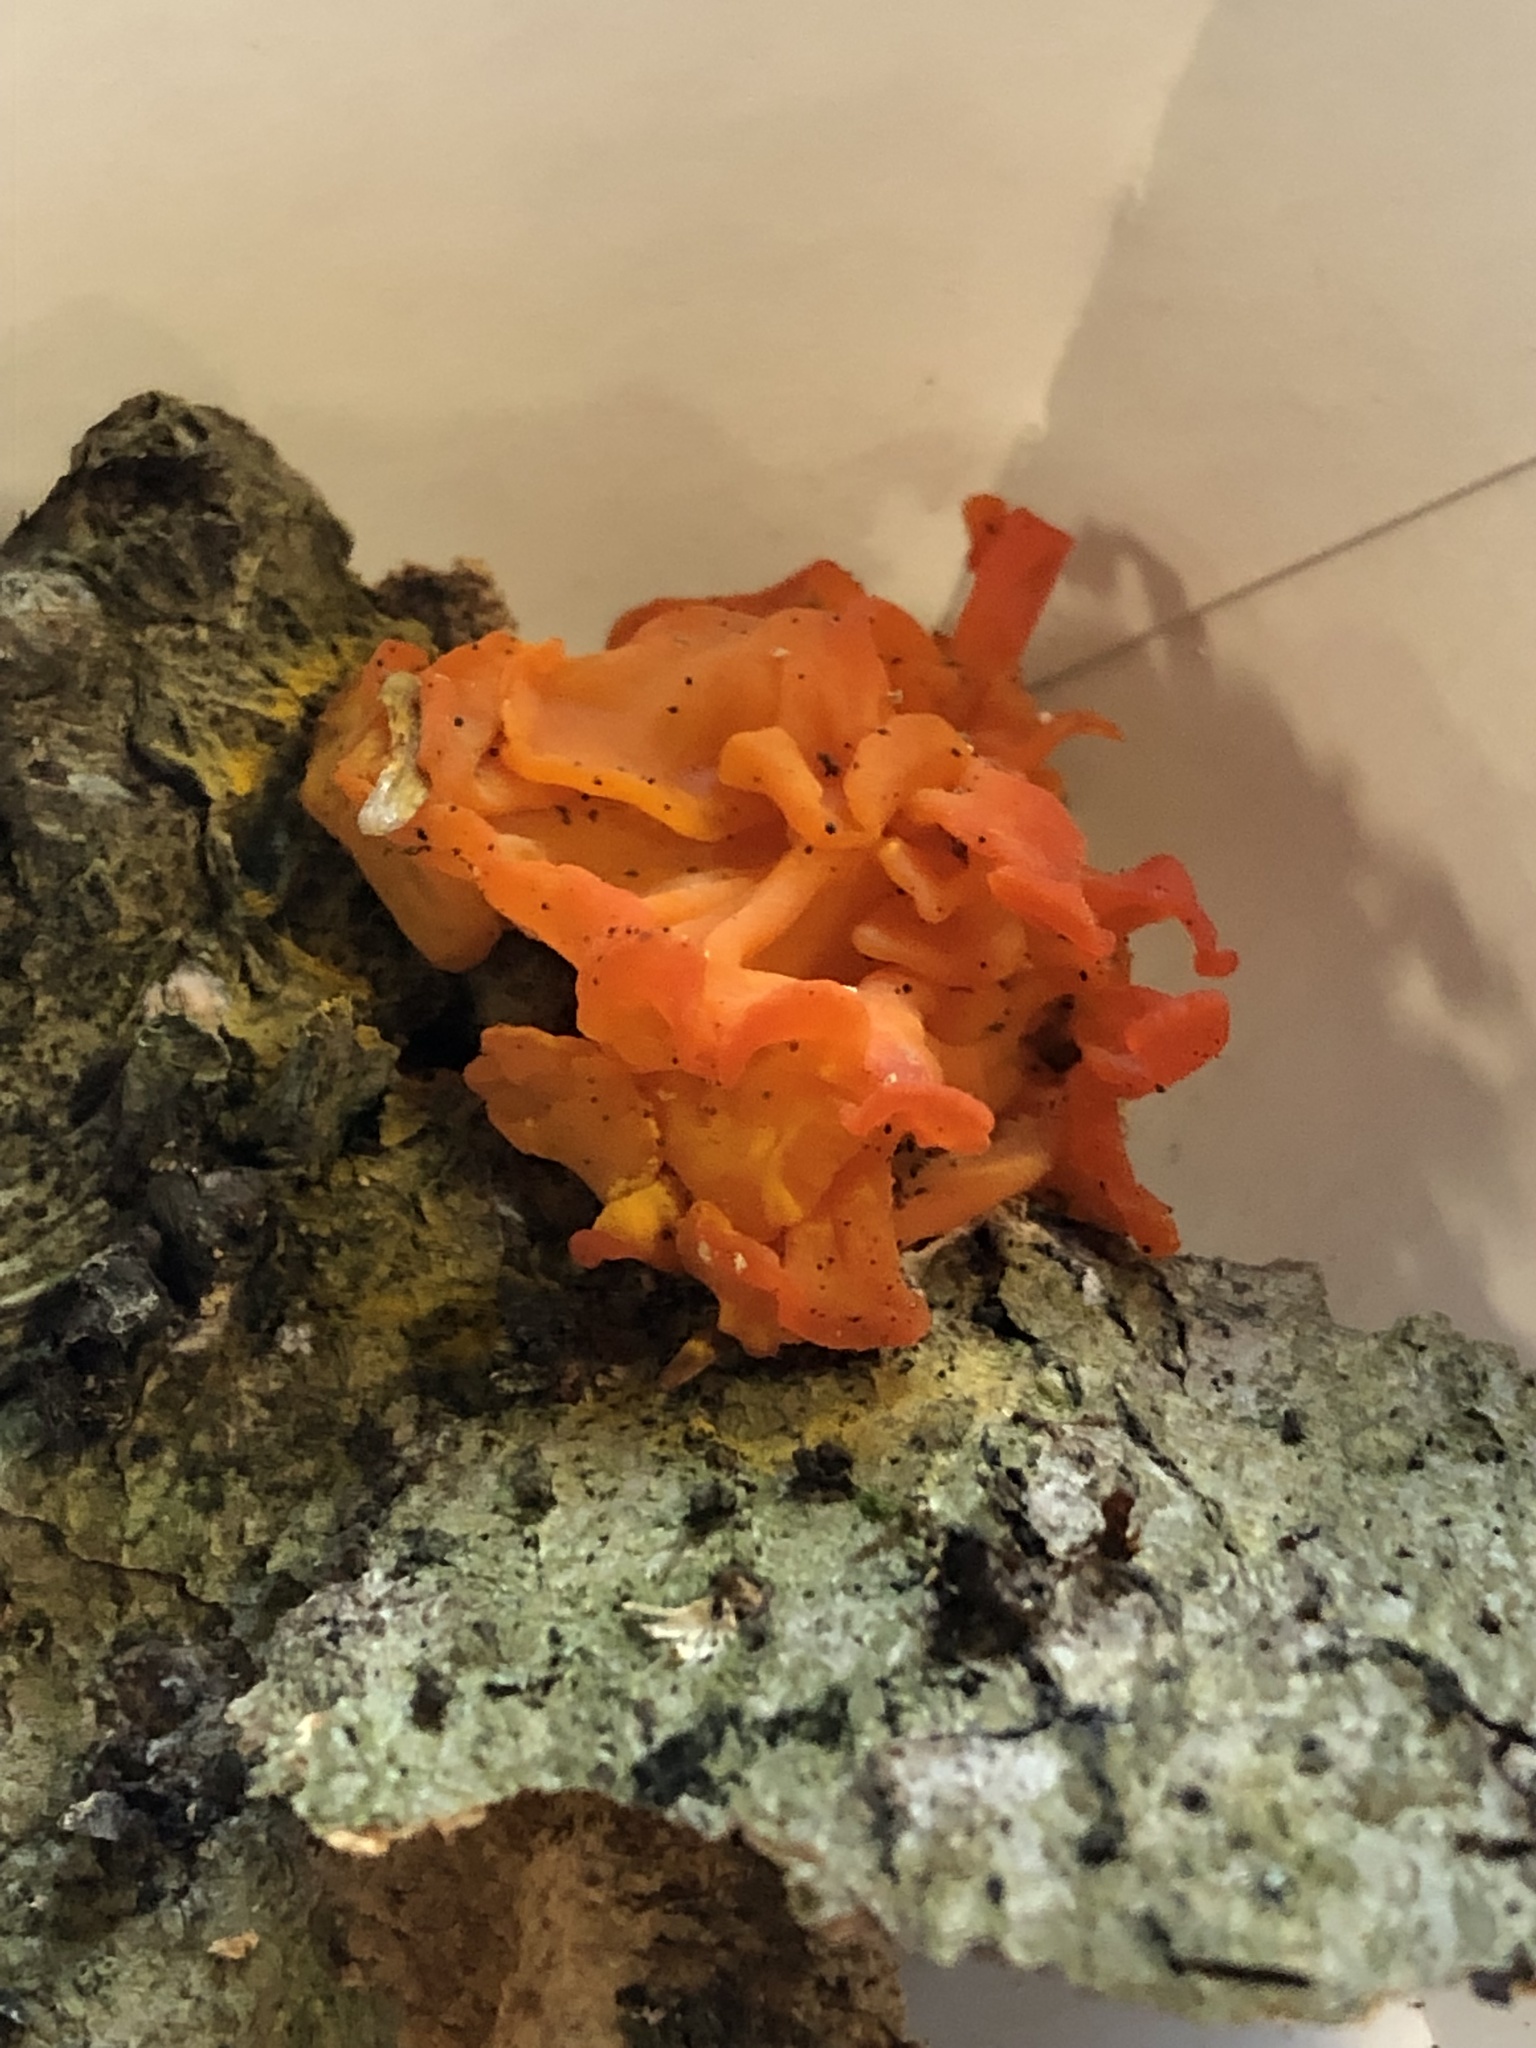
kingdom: Fungi
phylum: Basidiomycota
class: Dacrymycetes
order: Dacrymycetales
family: Dacrymycetaceae
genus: Dacrymyces
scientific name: Dacrymyces chrysospermus
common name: Orange jelly spot
